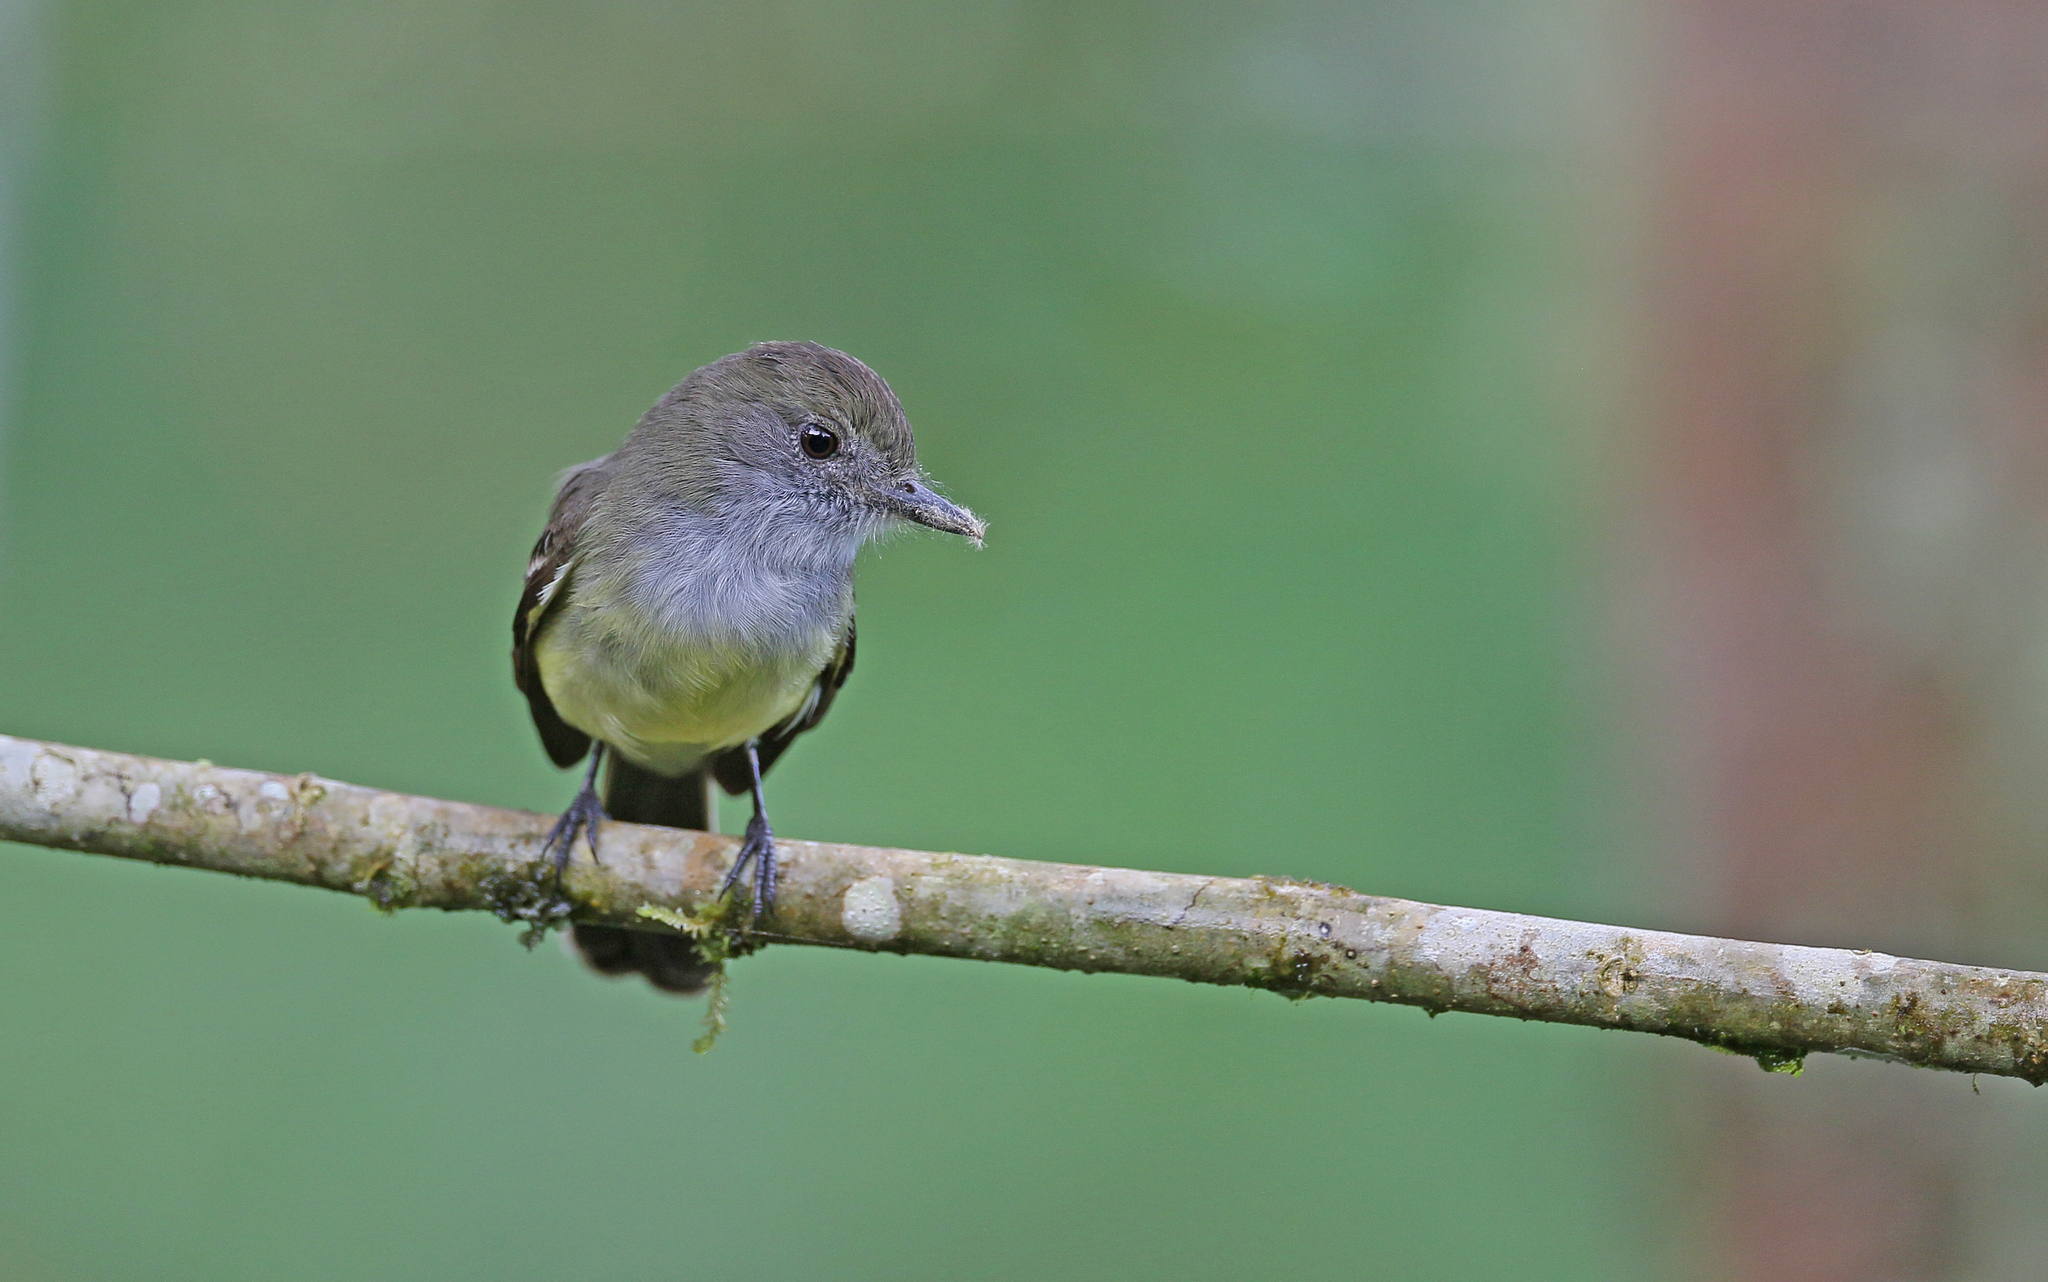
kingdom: Animalia
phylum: Chordata
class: Aves
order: Passeriformes
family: Tyrannidae
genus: Myiarchus
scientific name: Myiarchus cephalotes
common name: Pale-edged flycatcher
